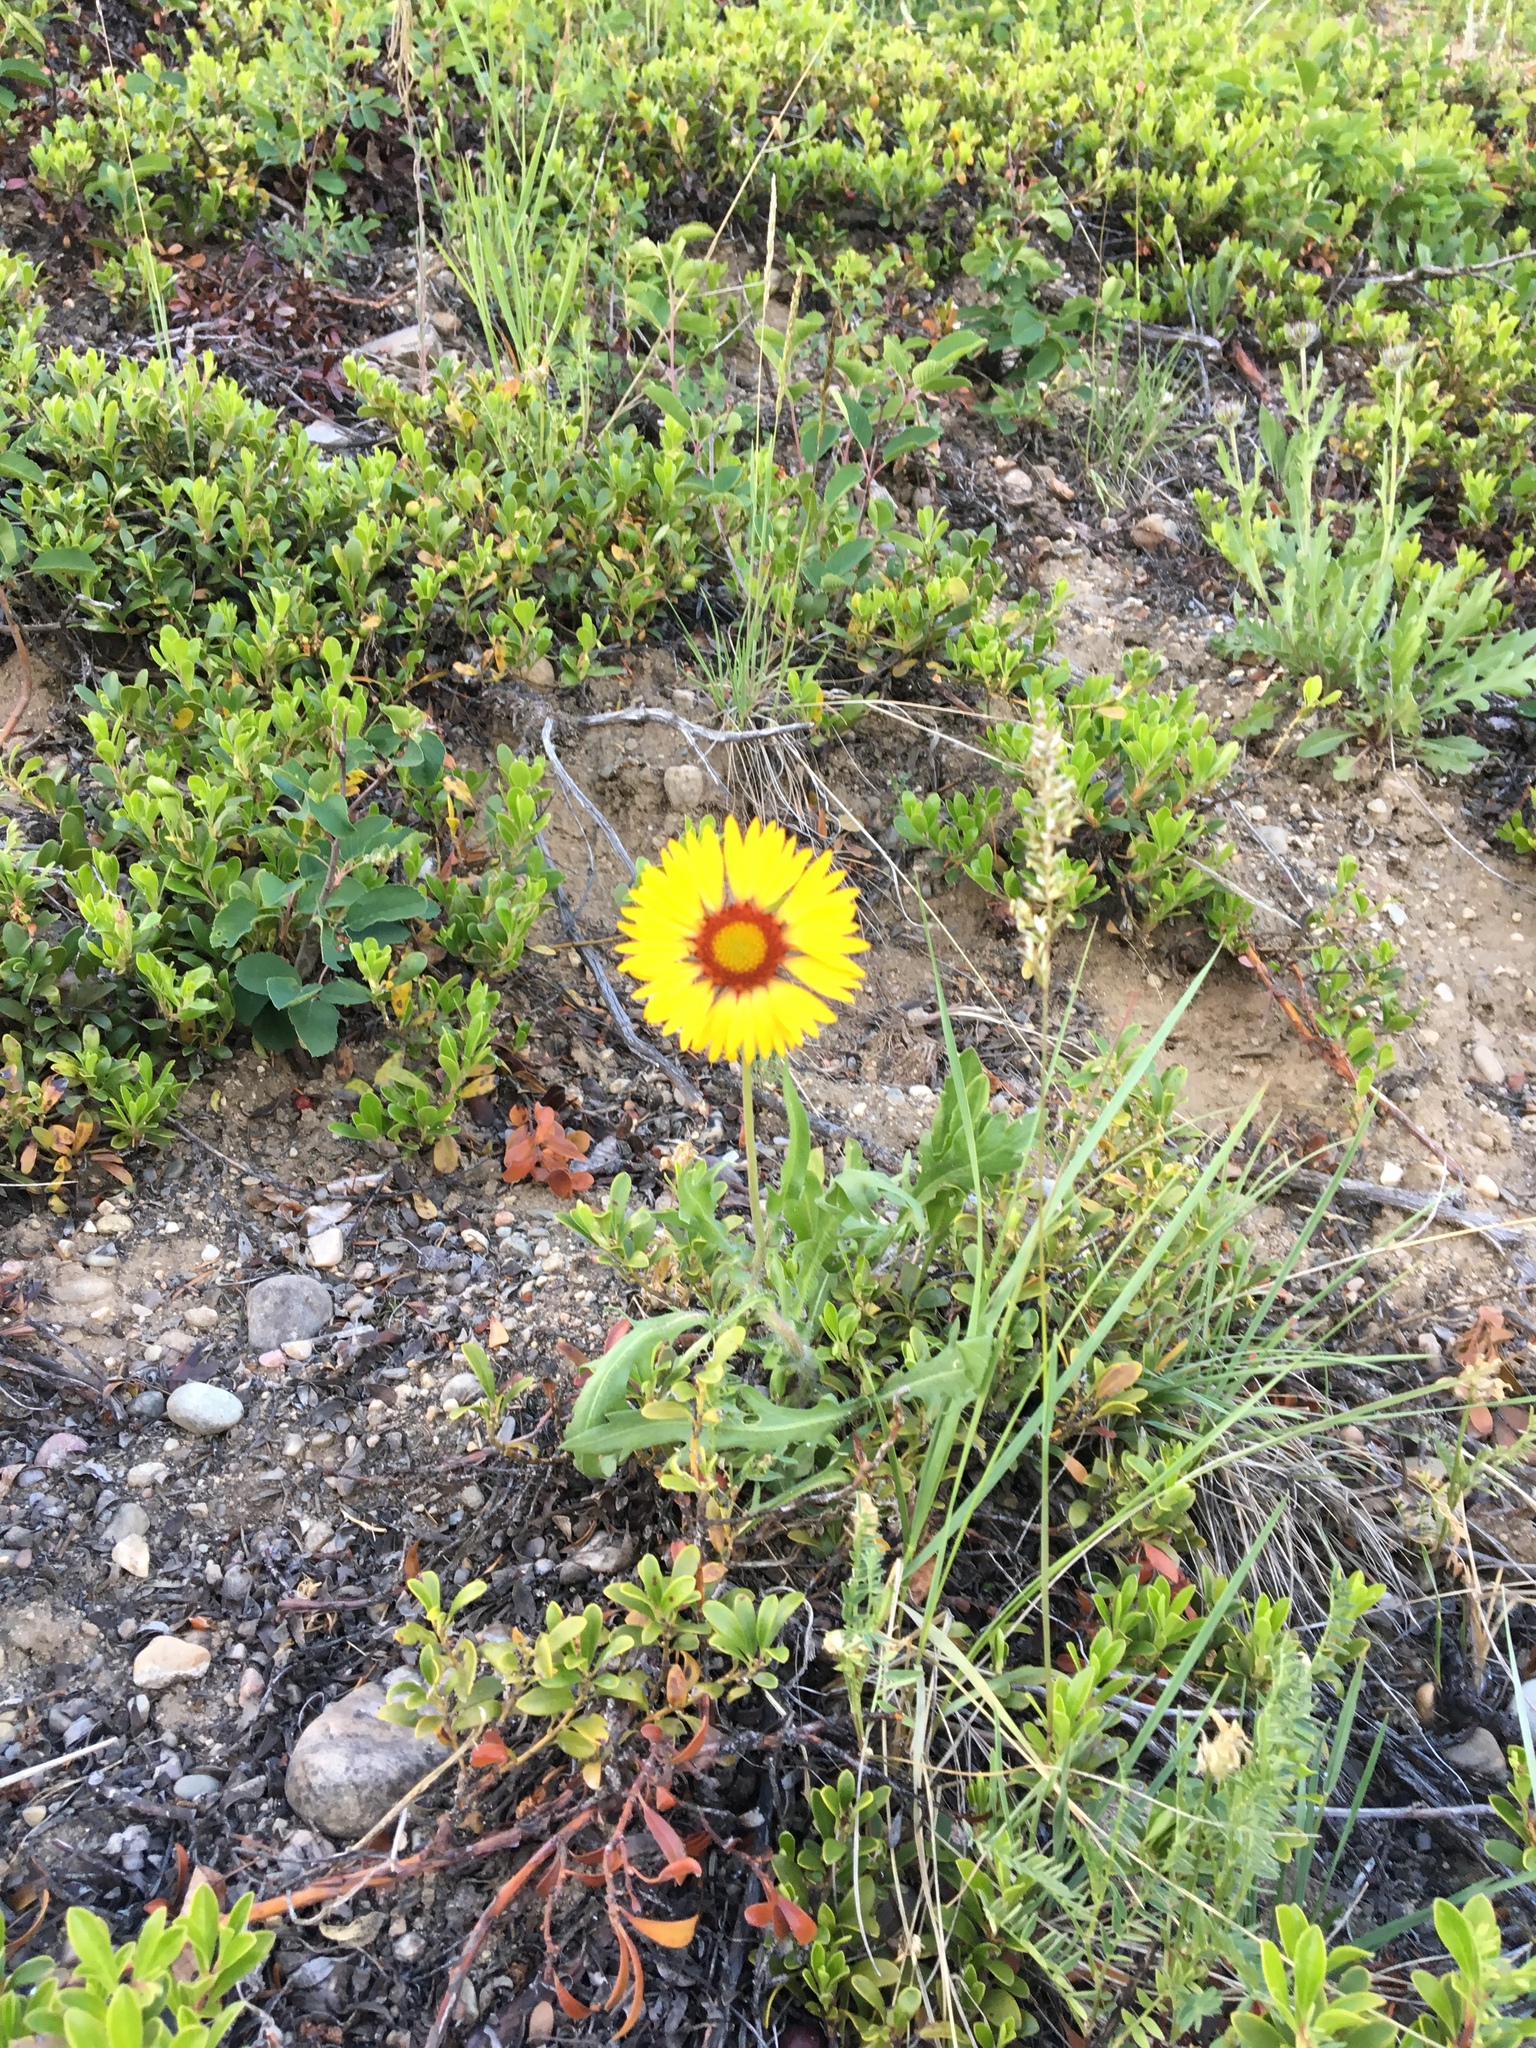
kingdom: Plantae
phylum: Tracheophyta
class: Magnoliopsida
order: Asterales
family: Asteraceae
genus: Gaillardia
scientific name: Gaillardia aristata
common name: Blanket-flower
